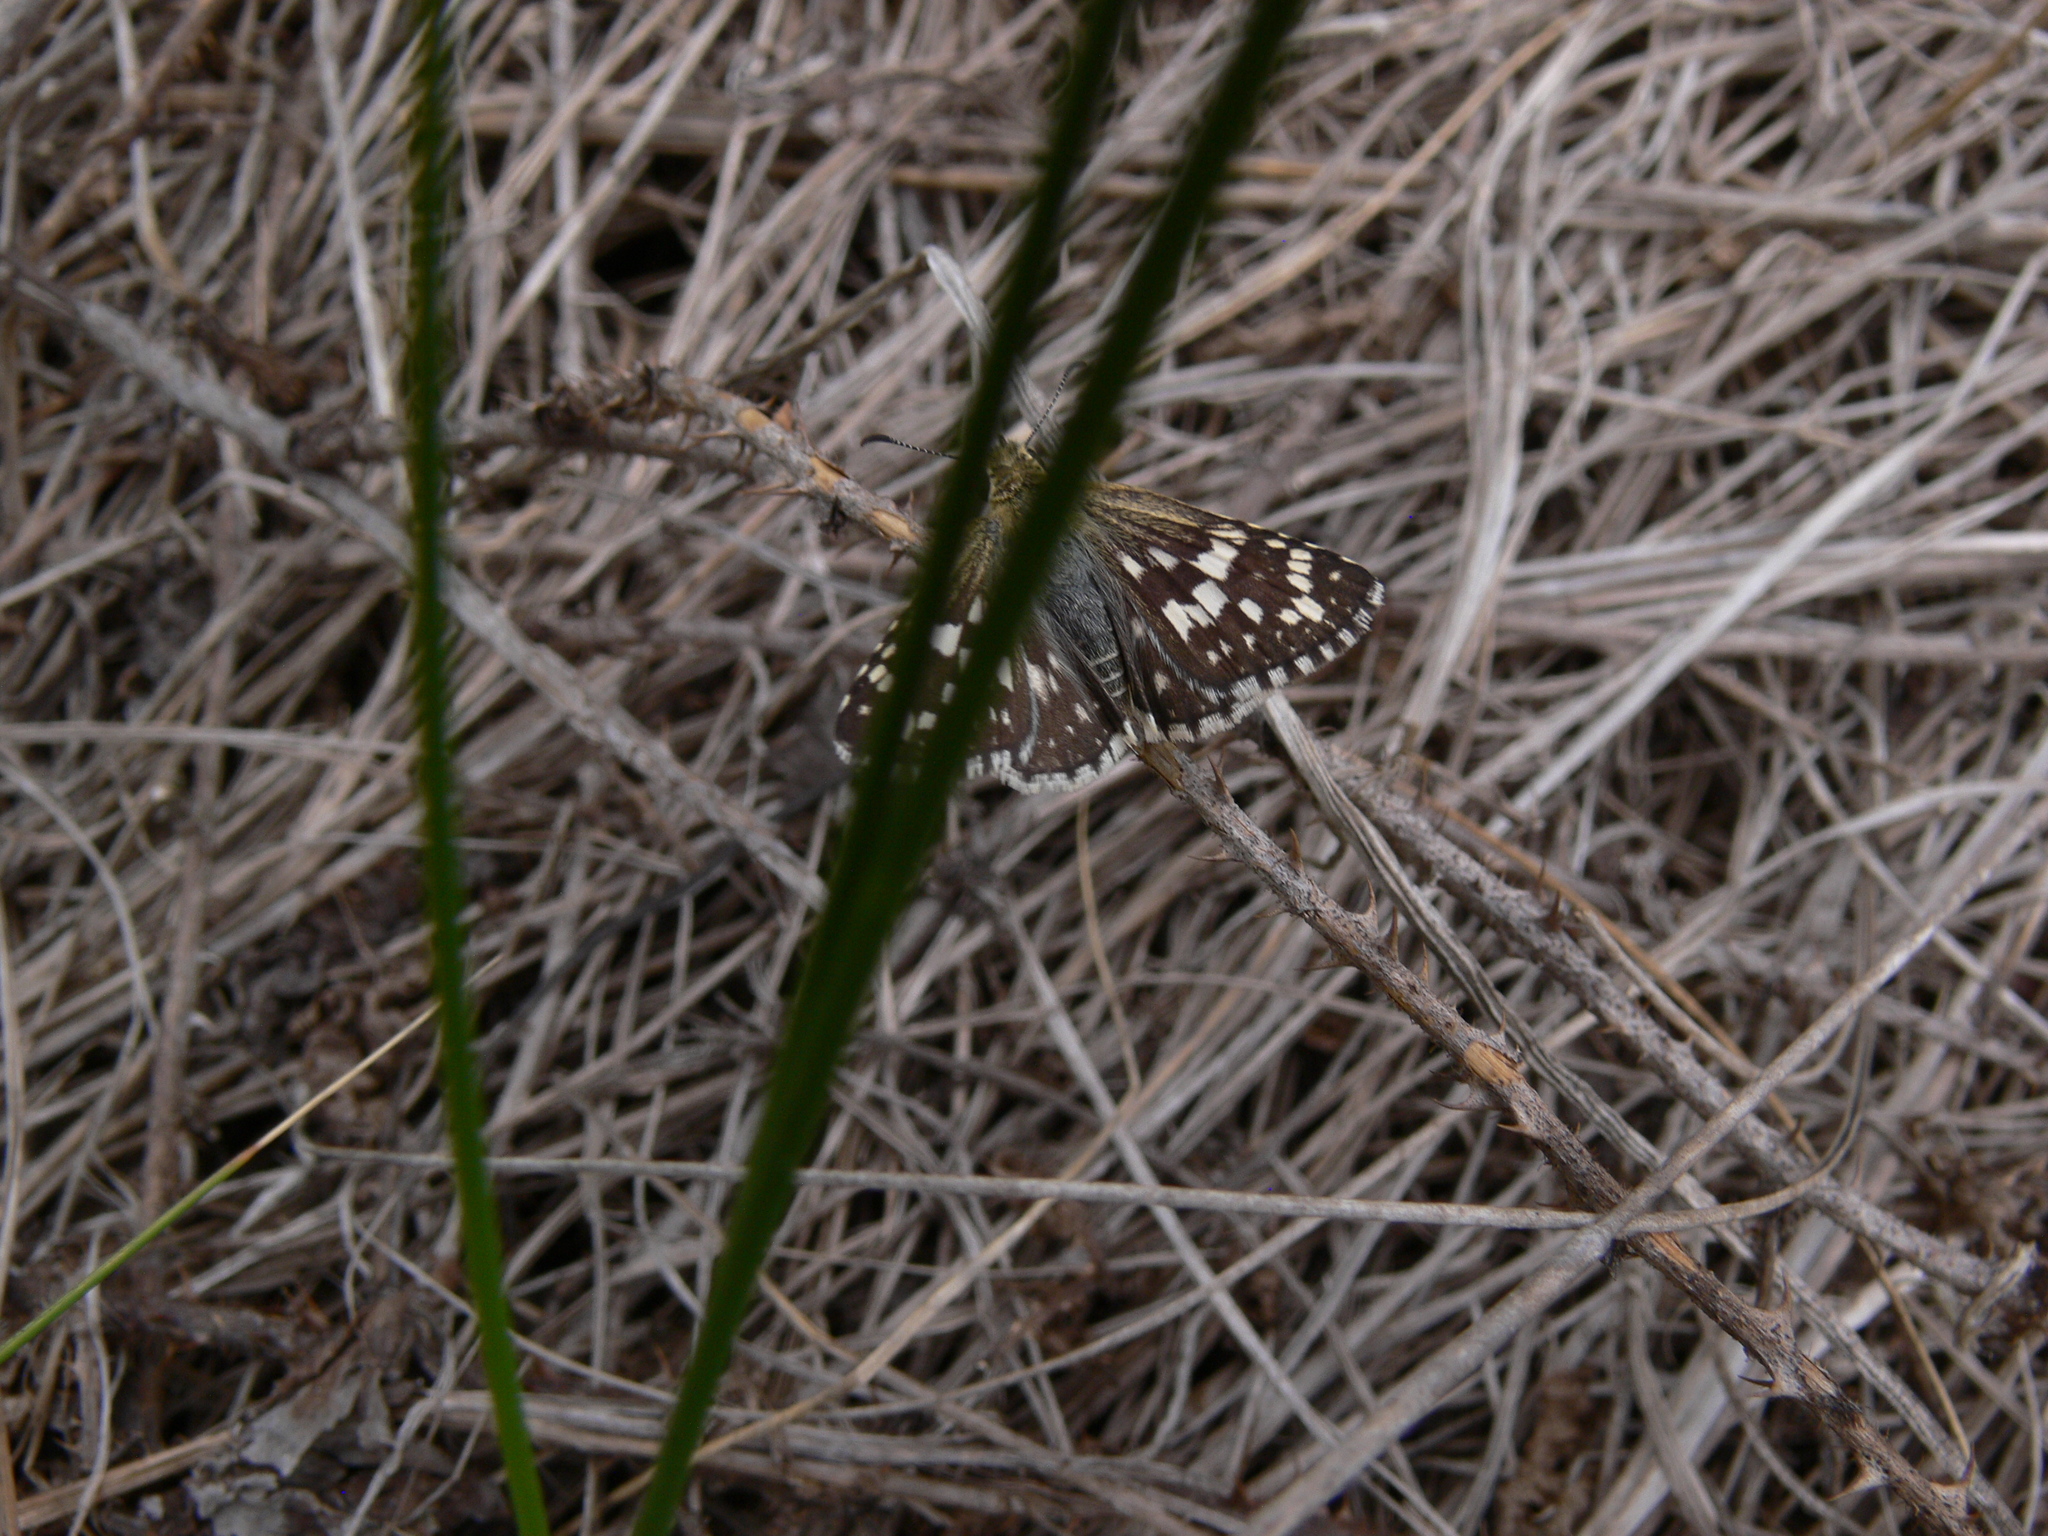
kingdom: Animalia
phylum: Arthropoda
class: Insecta
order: Lepidoptera
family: Hesperiidae
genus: Burnsius
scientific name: Burnsius
